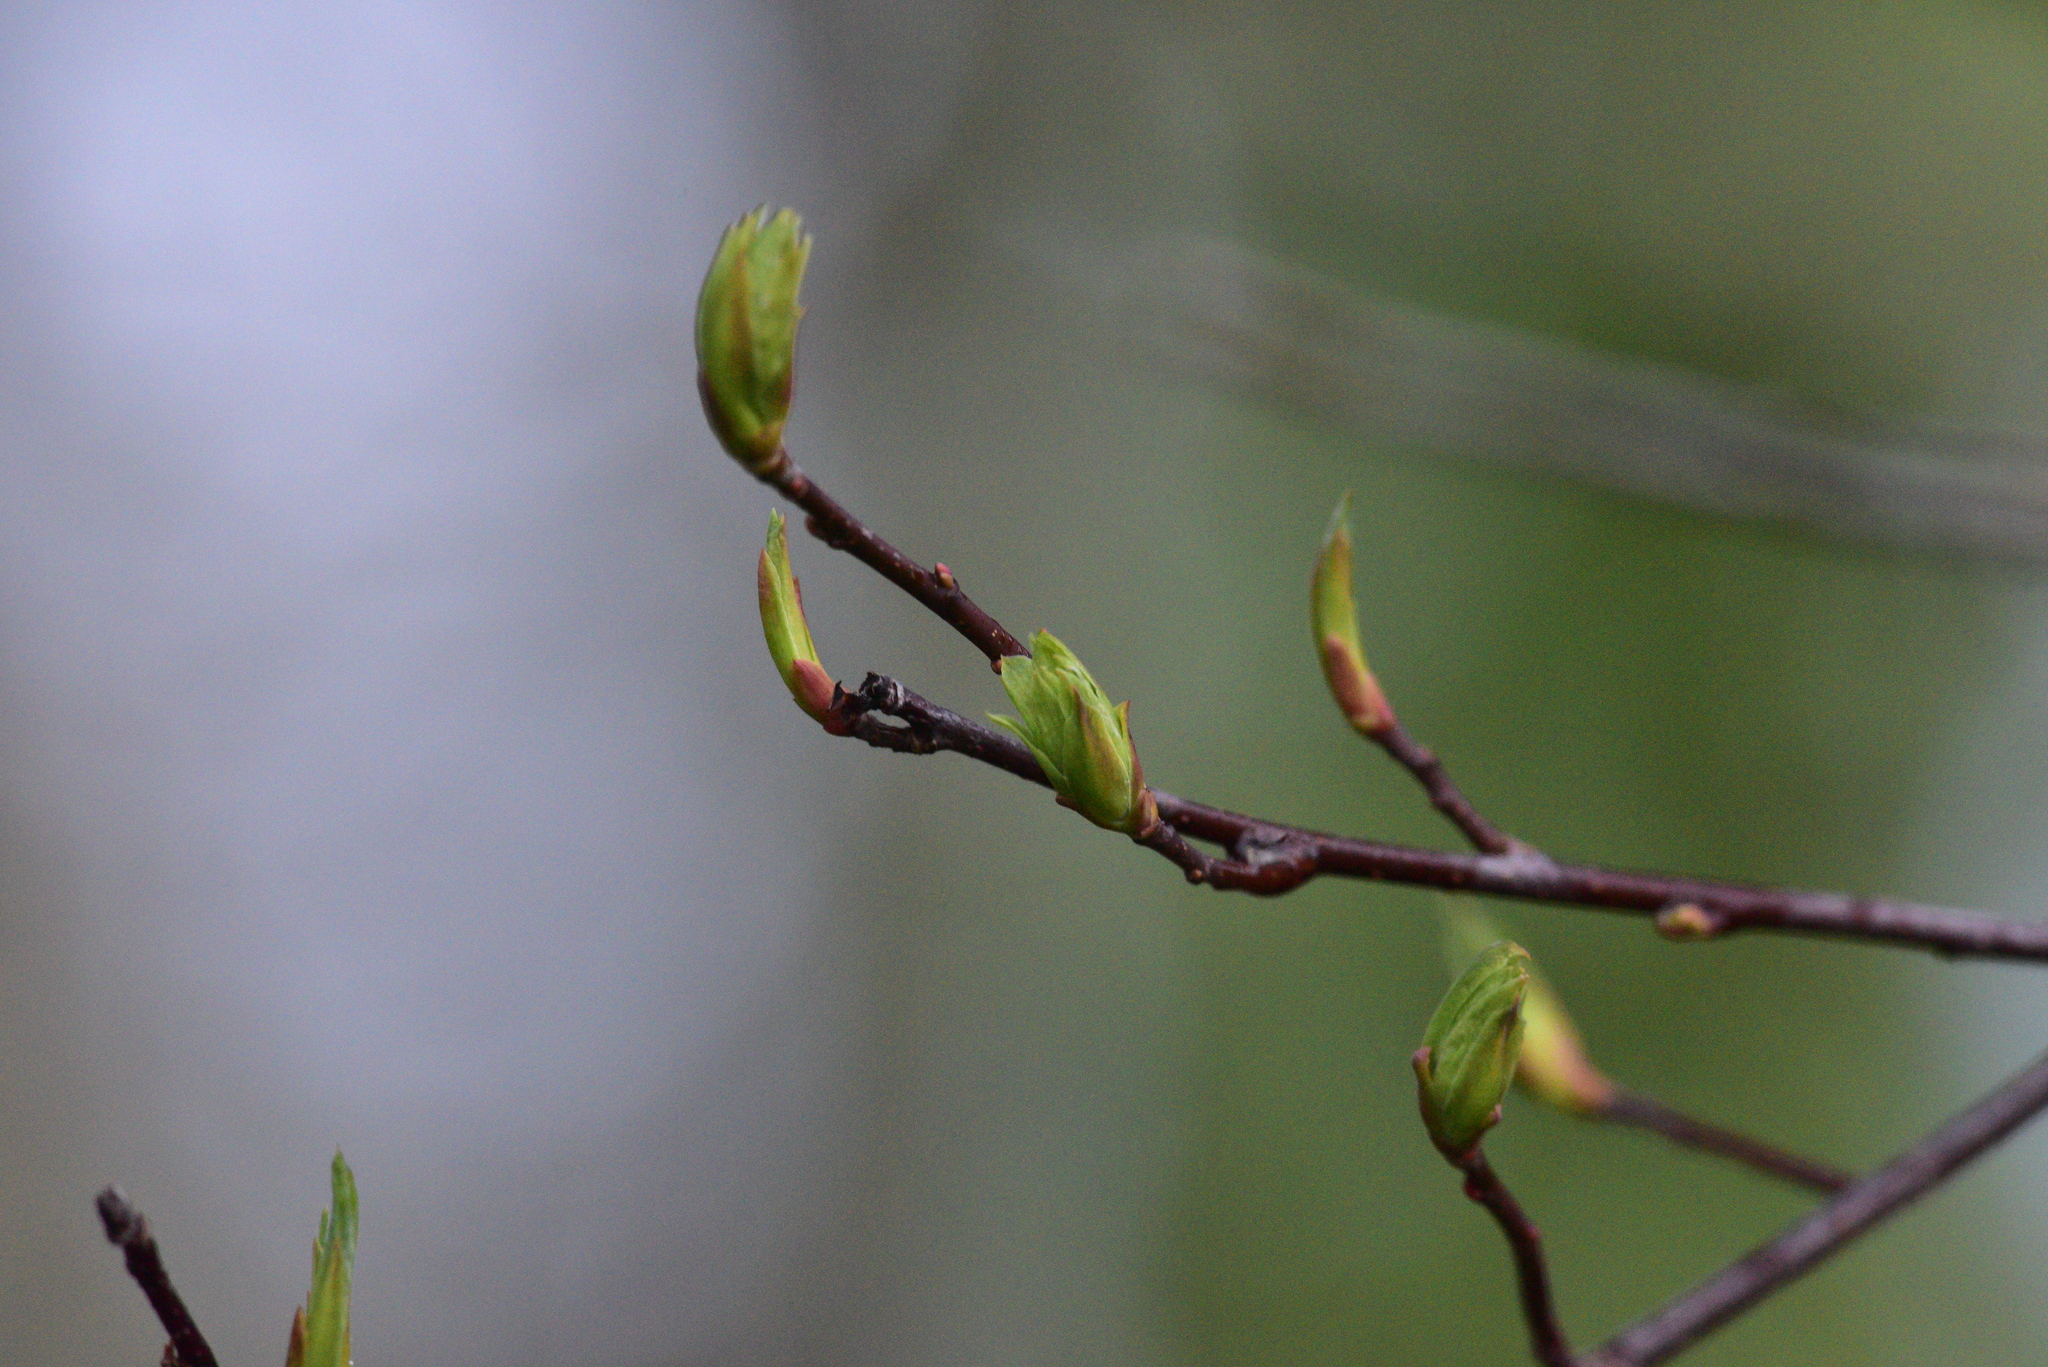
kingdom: Plantae
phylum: Tracheophyta
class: Magnoliopsida
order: Rosales
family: Rosaceae
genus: Oemleria
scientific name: Oemleria cerasiformis
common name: Osoberry
